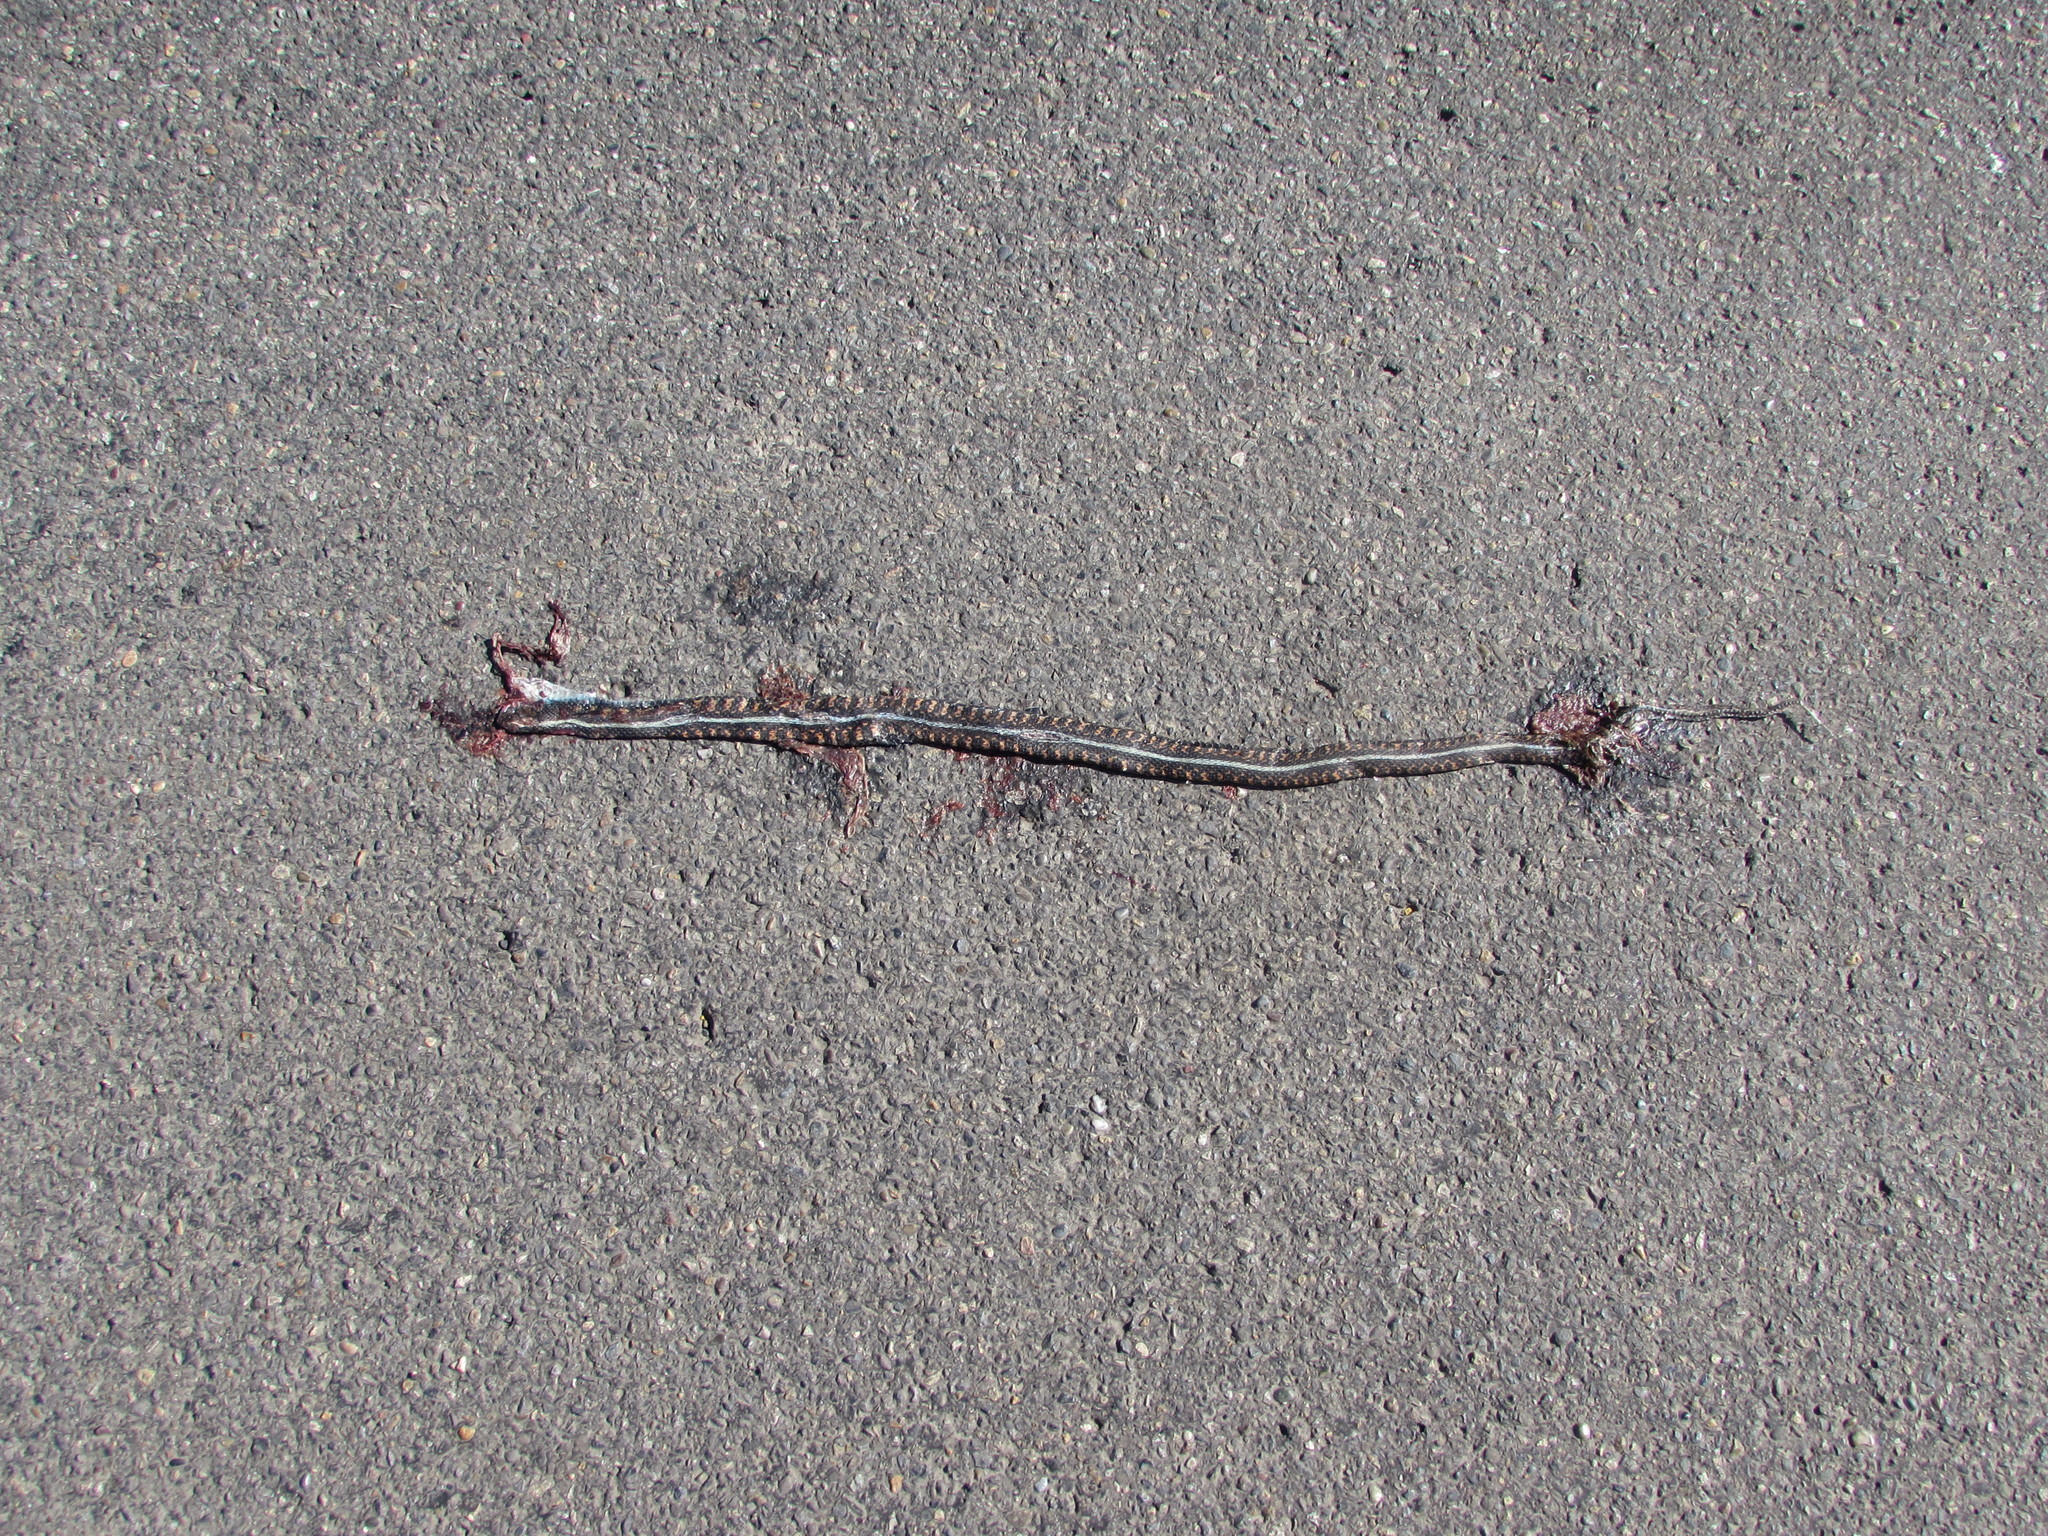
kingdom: Animalia
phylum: Chordata
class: Squamata
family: Colubridae
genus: Thamnophis
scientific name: Thamnophis sirtalis
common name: Common garter snake
